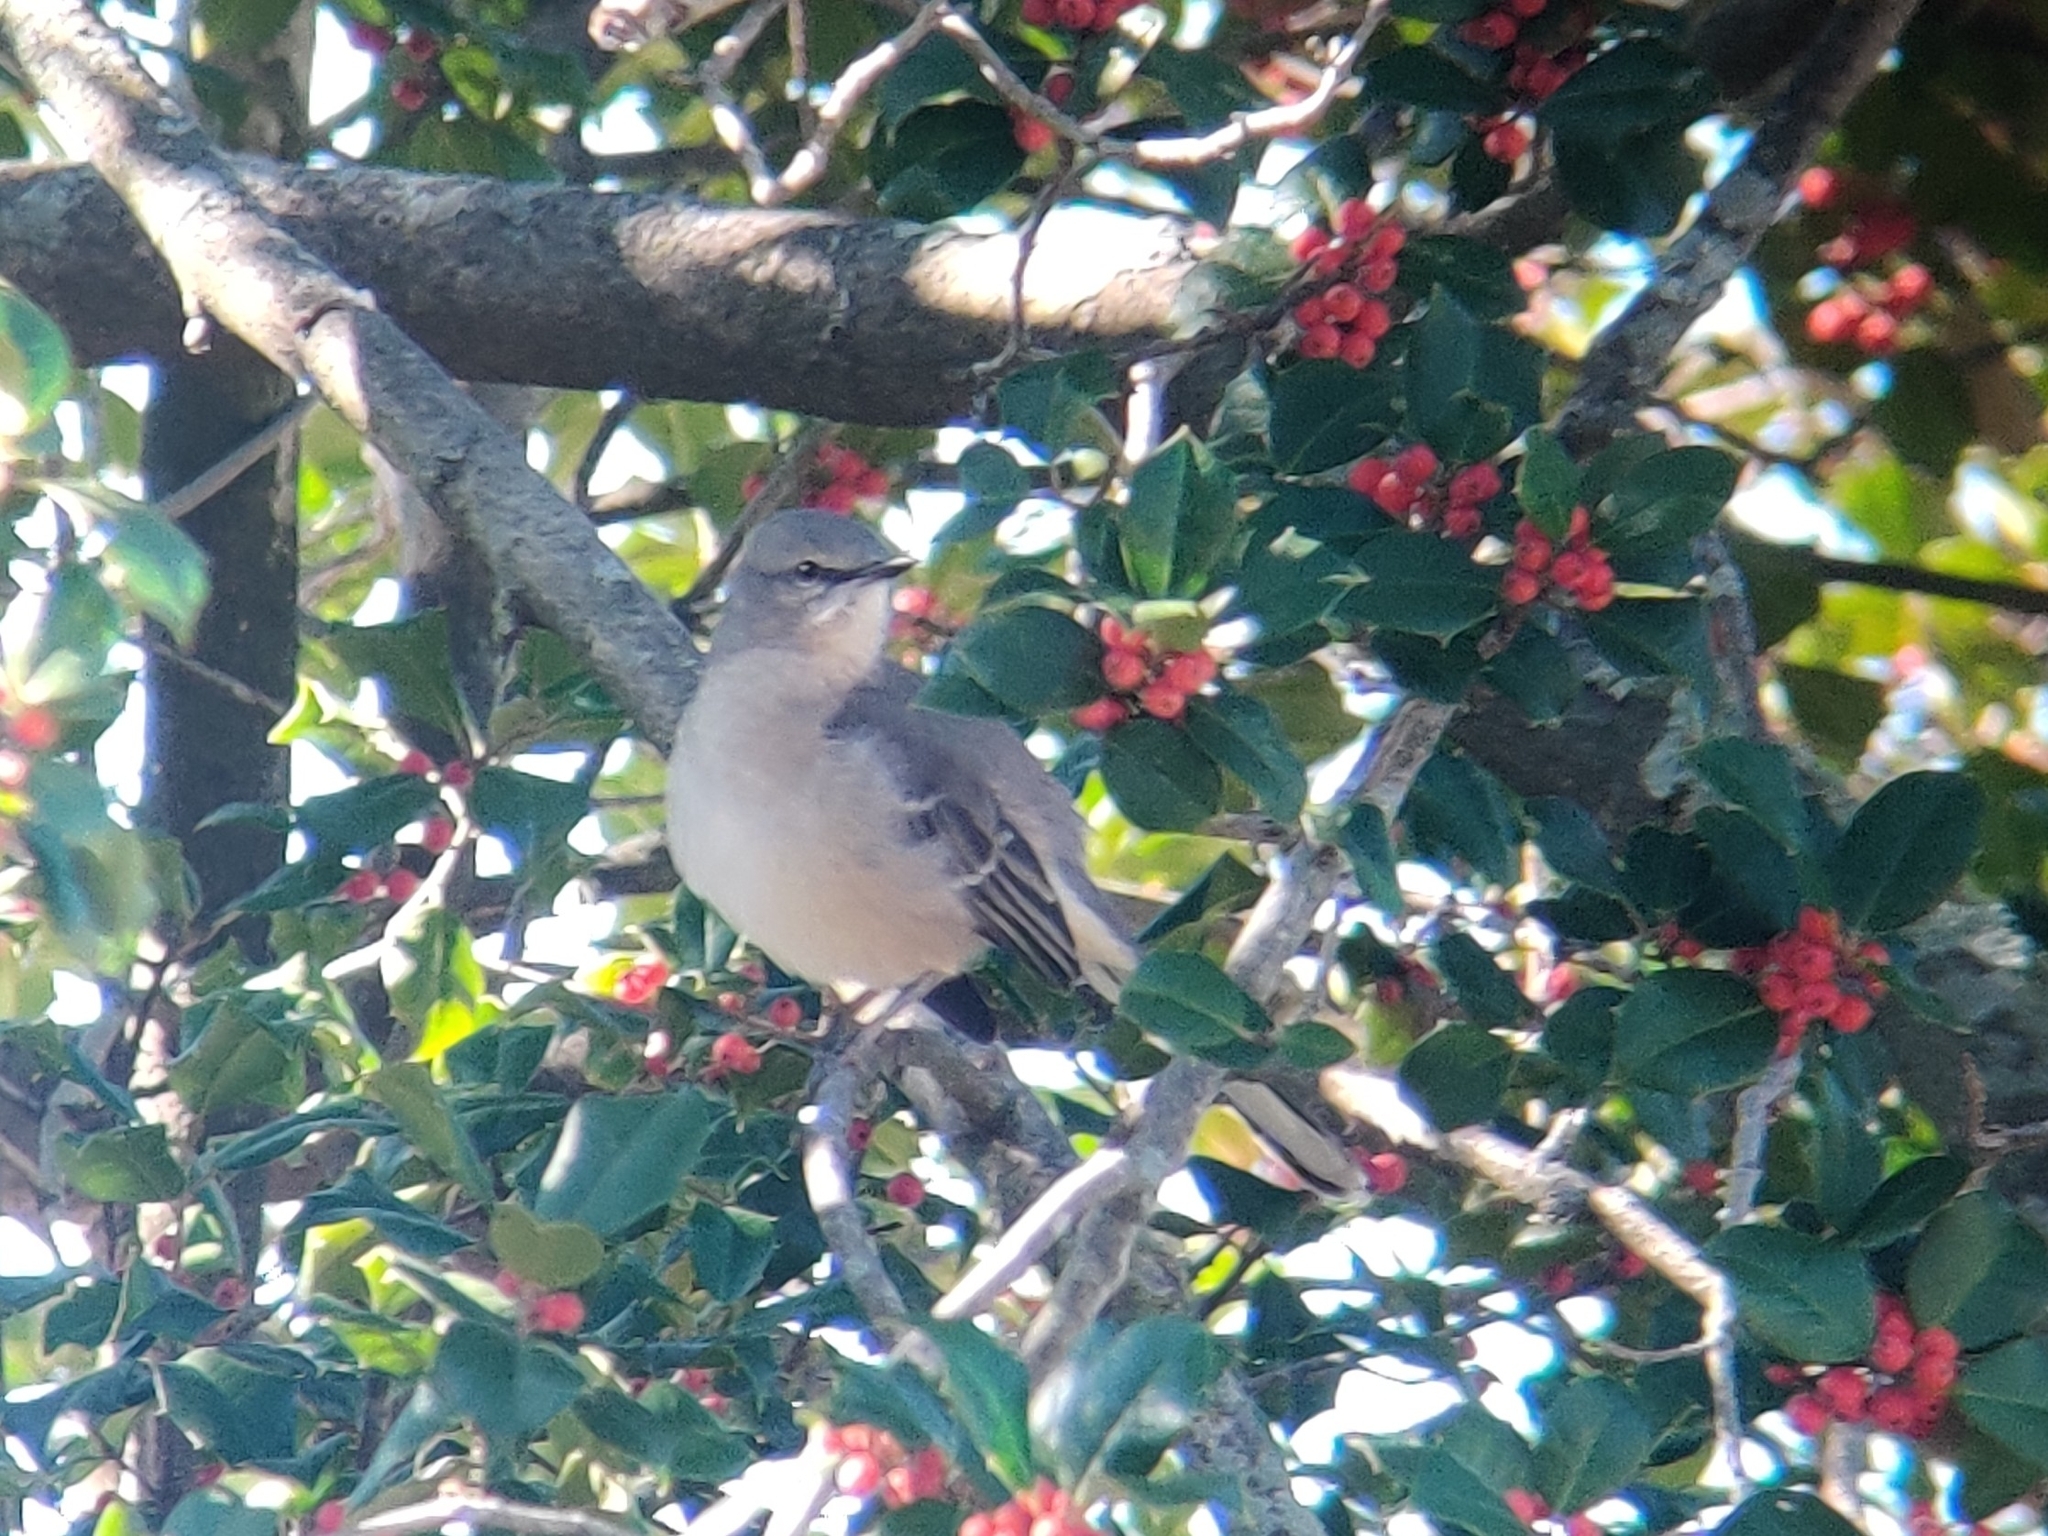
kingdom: Animalia
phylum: Chordata
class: Aves
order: Passeriformes
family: Mimidae
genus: Mimus
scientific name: Mimus polyglottos
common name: Northern mockingbird
